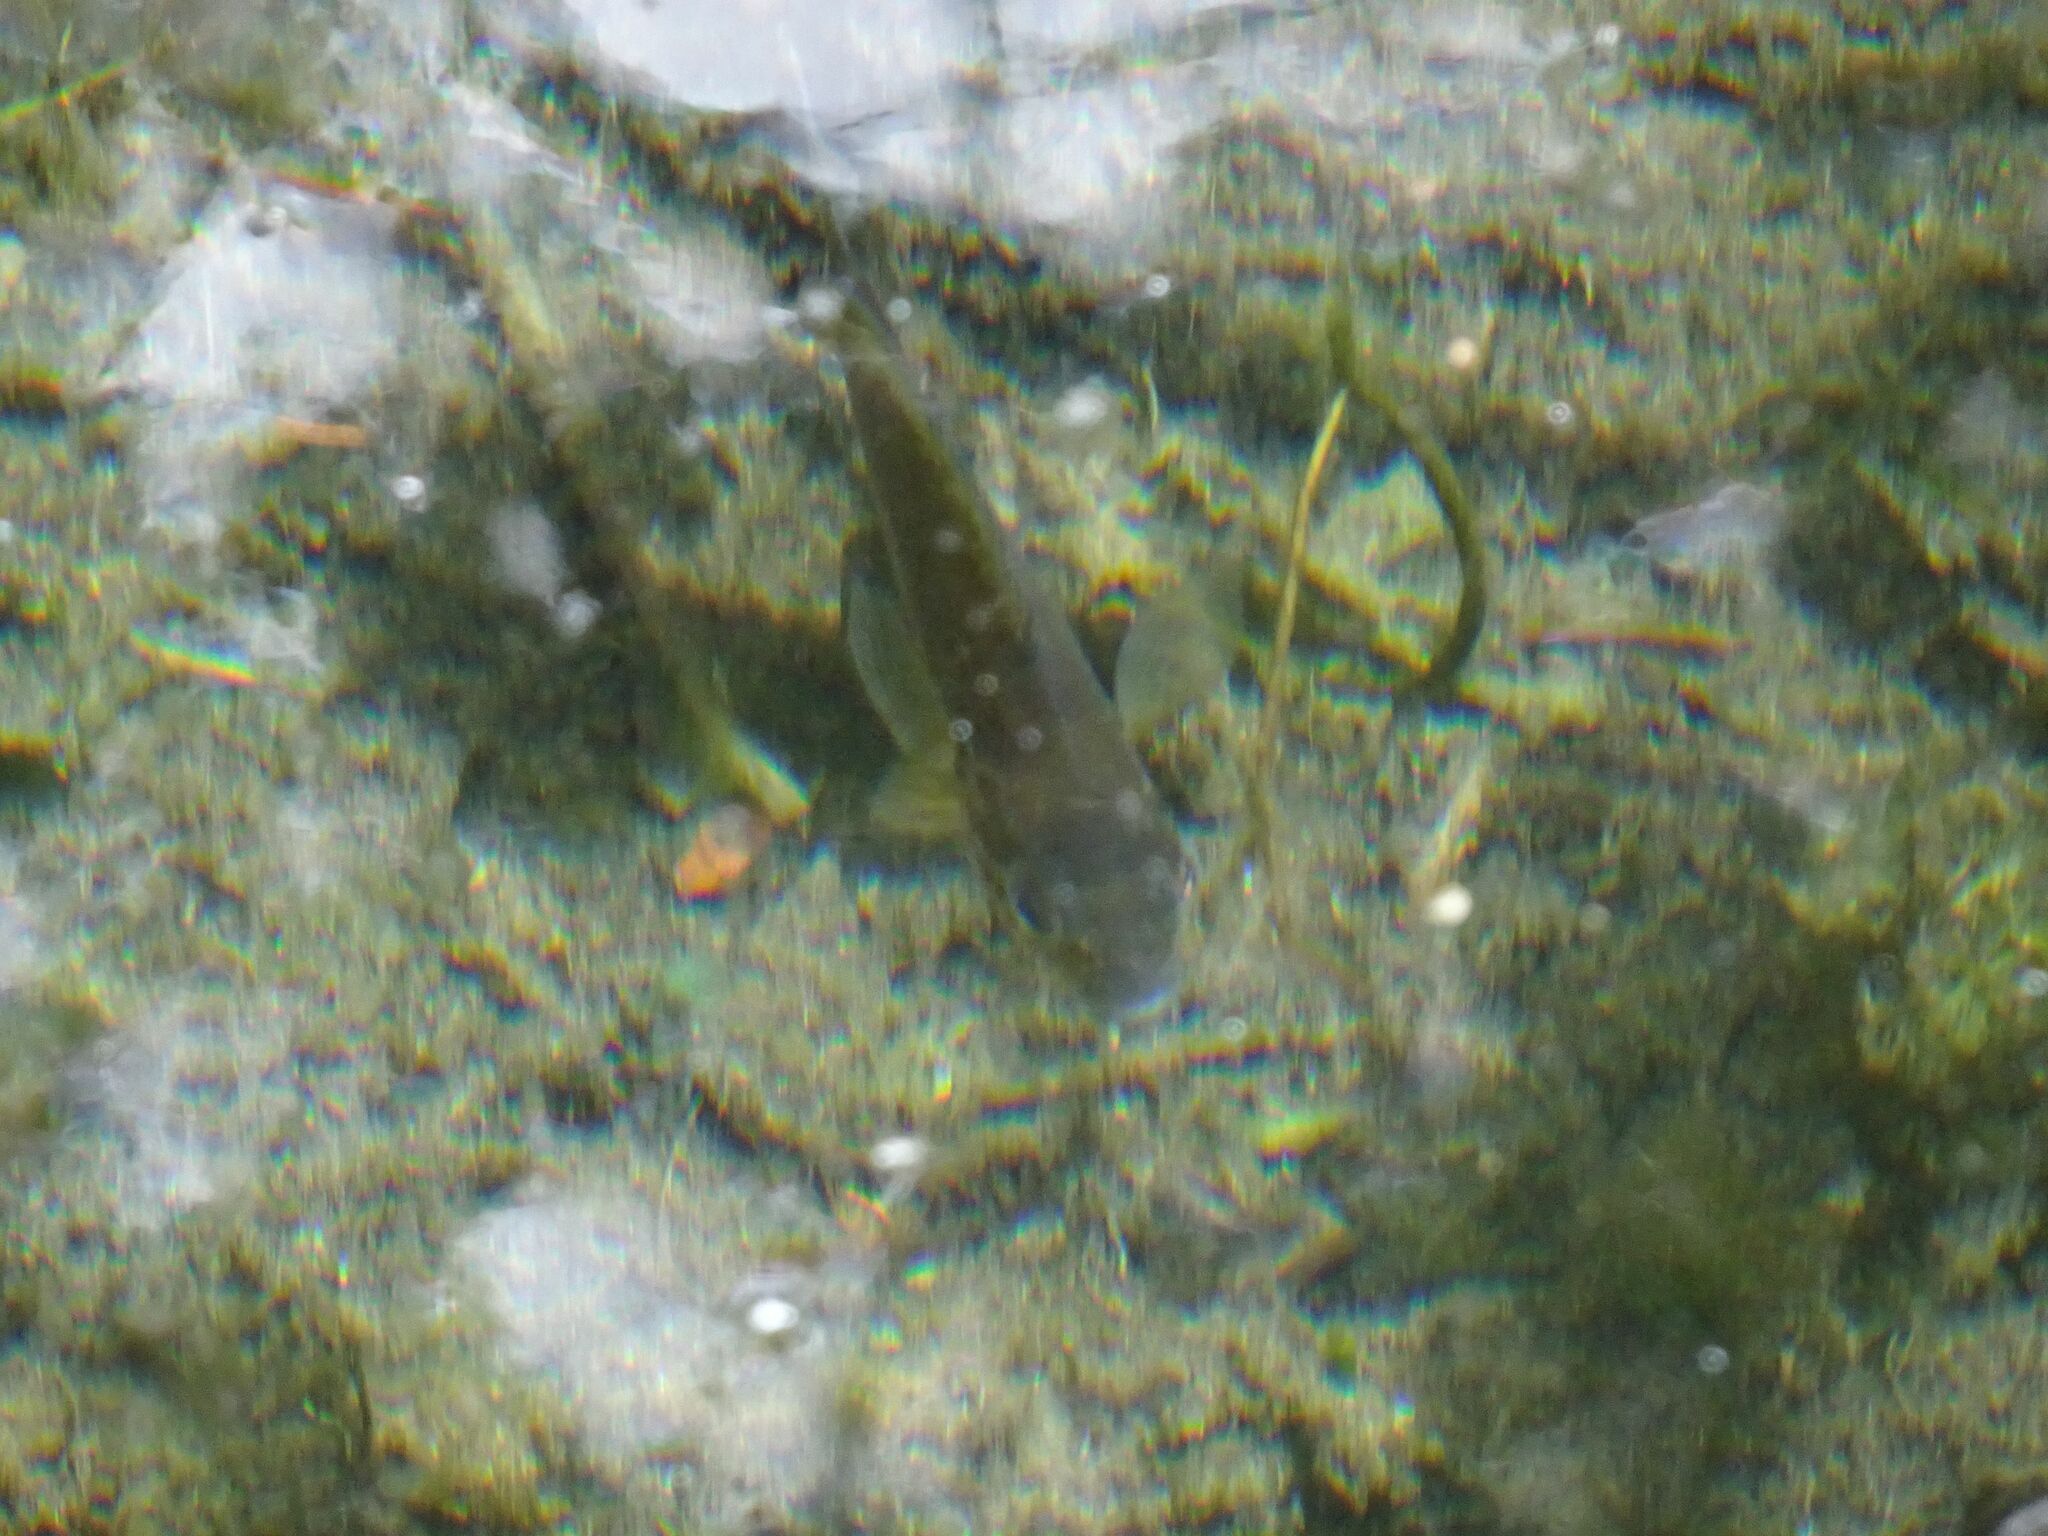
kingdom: Animalia
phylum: Chordata
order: Perciformes
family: Centrarchidae
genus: Lepomis
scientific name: Lepomis gibbosus
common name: Pumpkinseed
